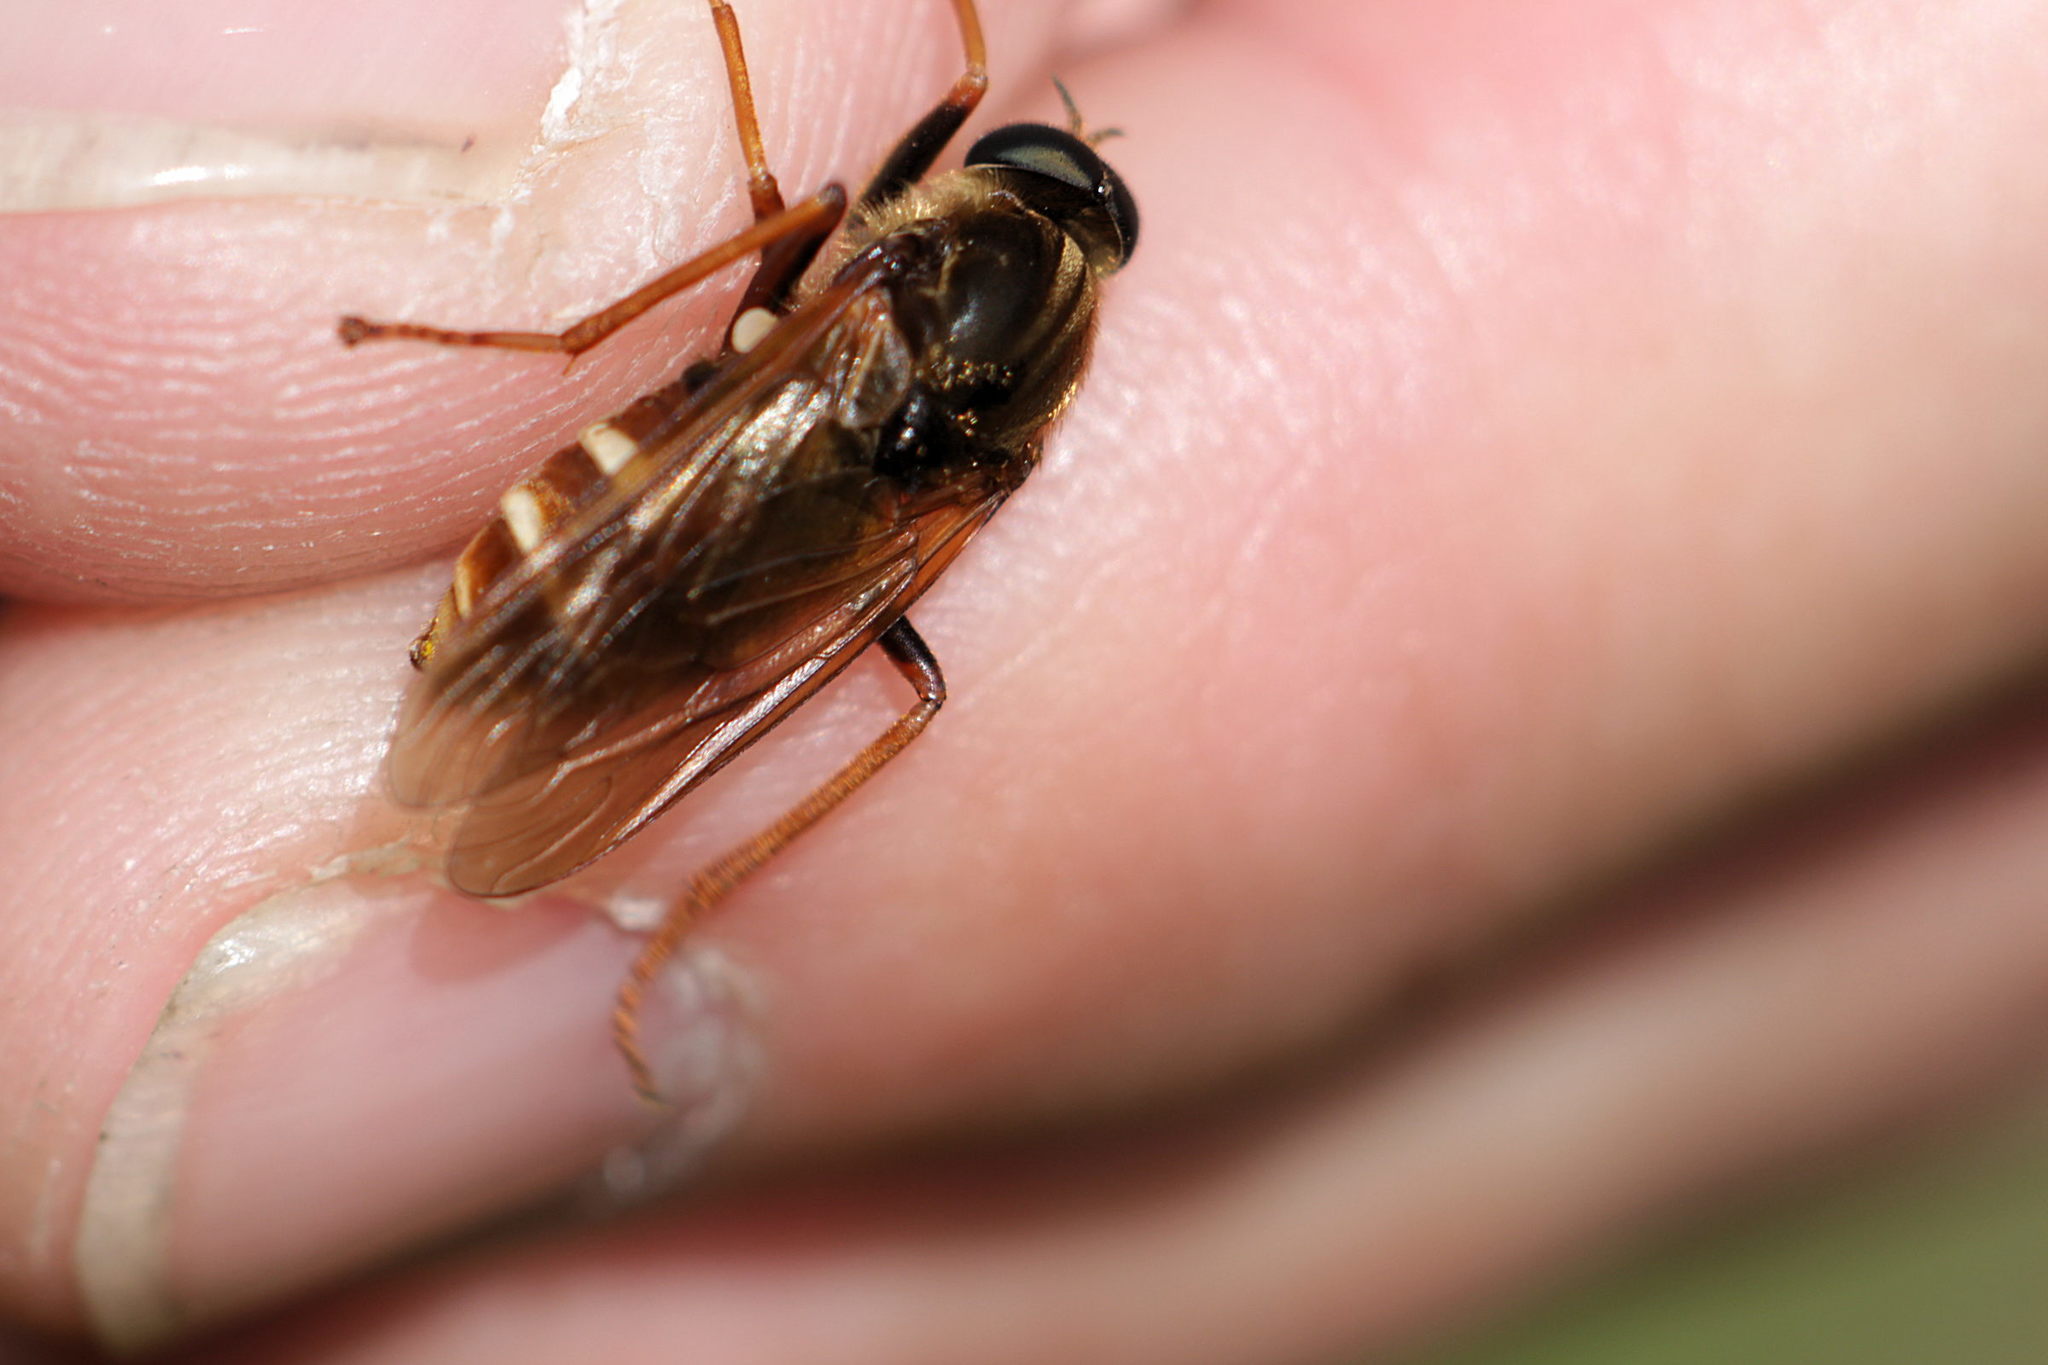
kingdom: Animalia
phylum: Arthropoda
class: Insecta
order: Diptera
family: Xylophagidae
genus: Coenomyia
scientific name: Coenomyia ferruginea
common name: Stink fly
